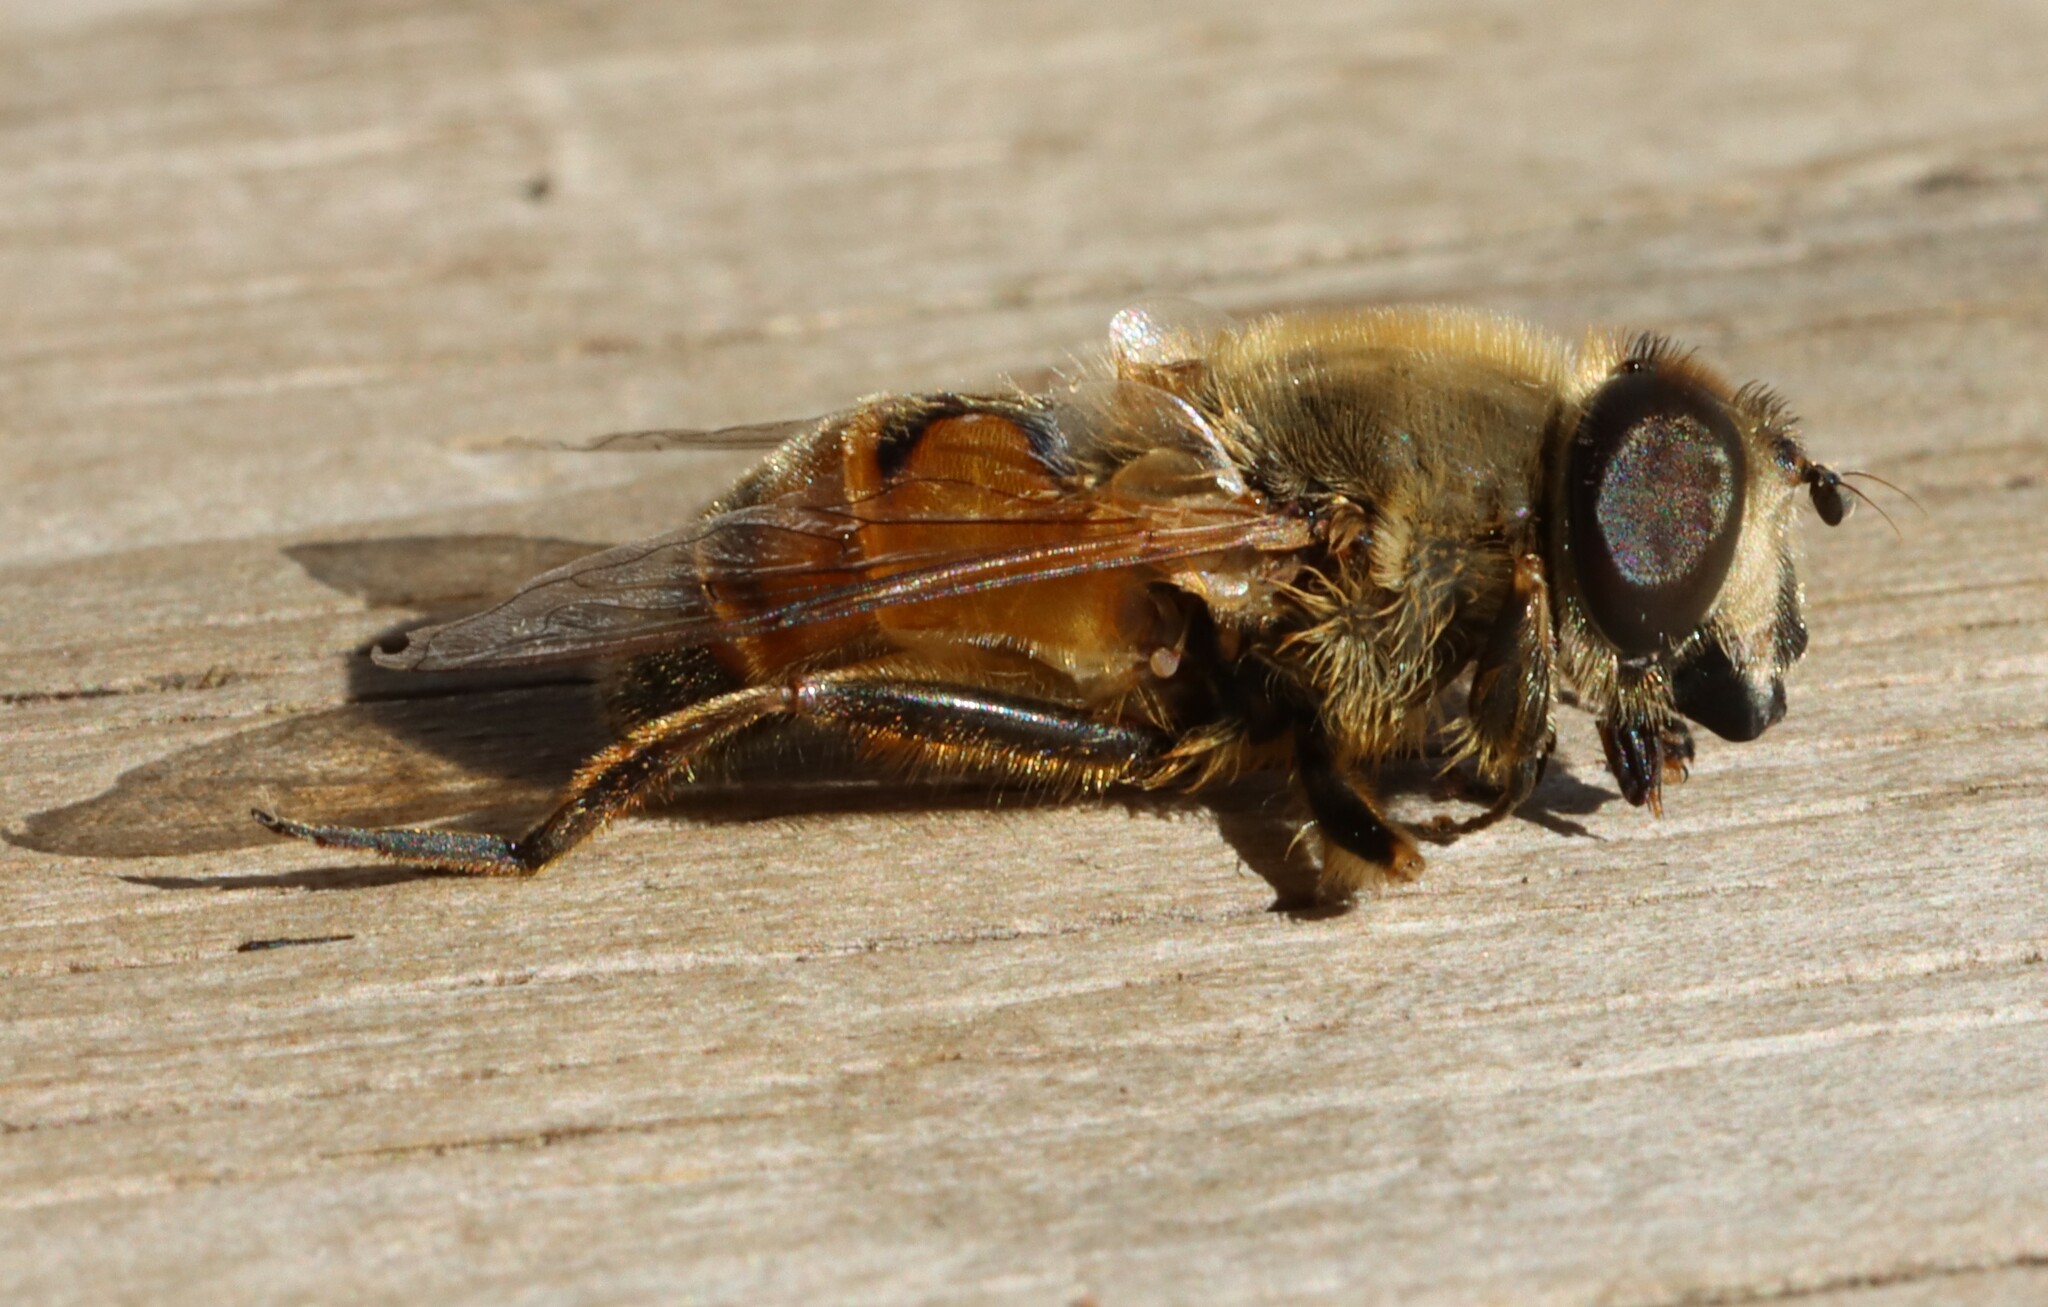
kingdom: Animalia
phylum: Arthropoda
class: Insecta
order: Diptera
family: Syrphidae
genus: Eristalis
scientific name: Eristalis tenax
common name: Drone fly
